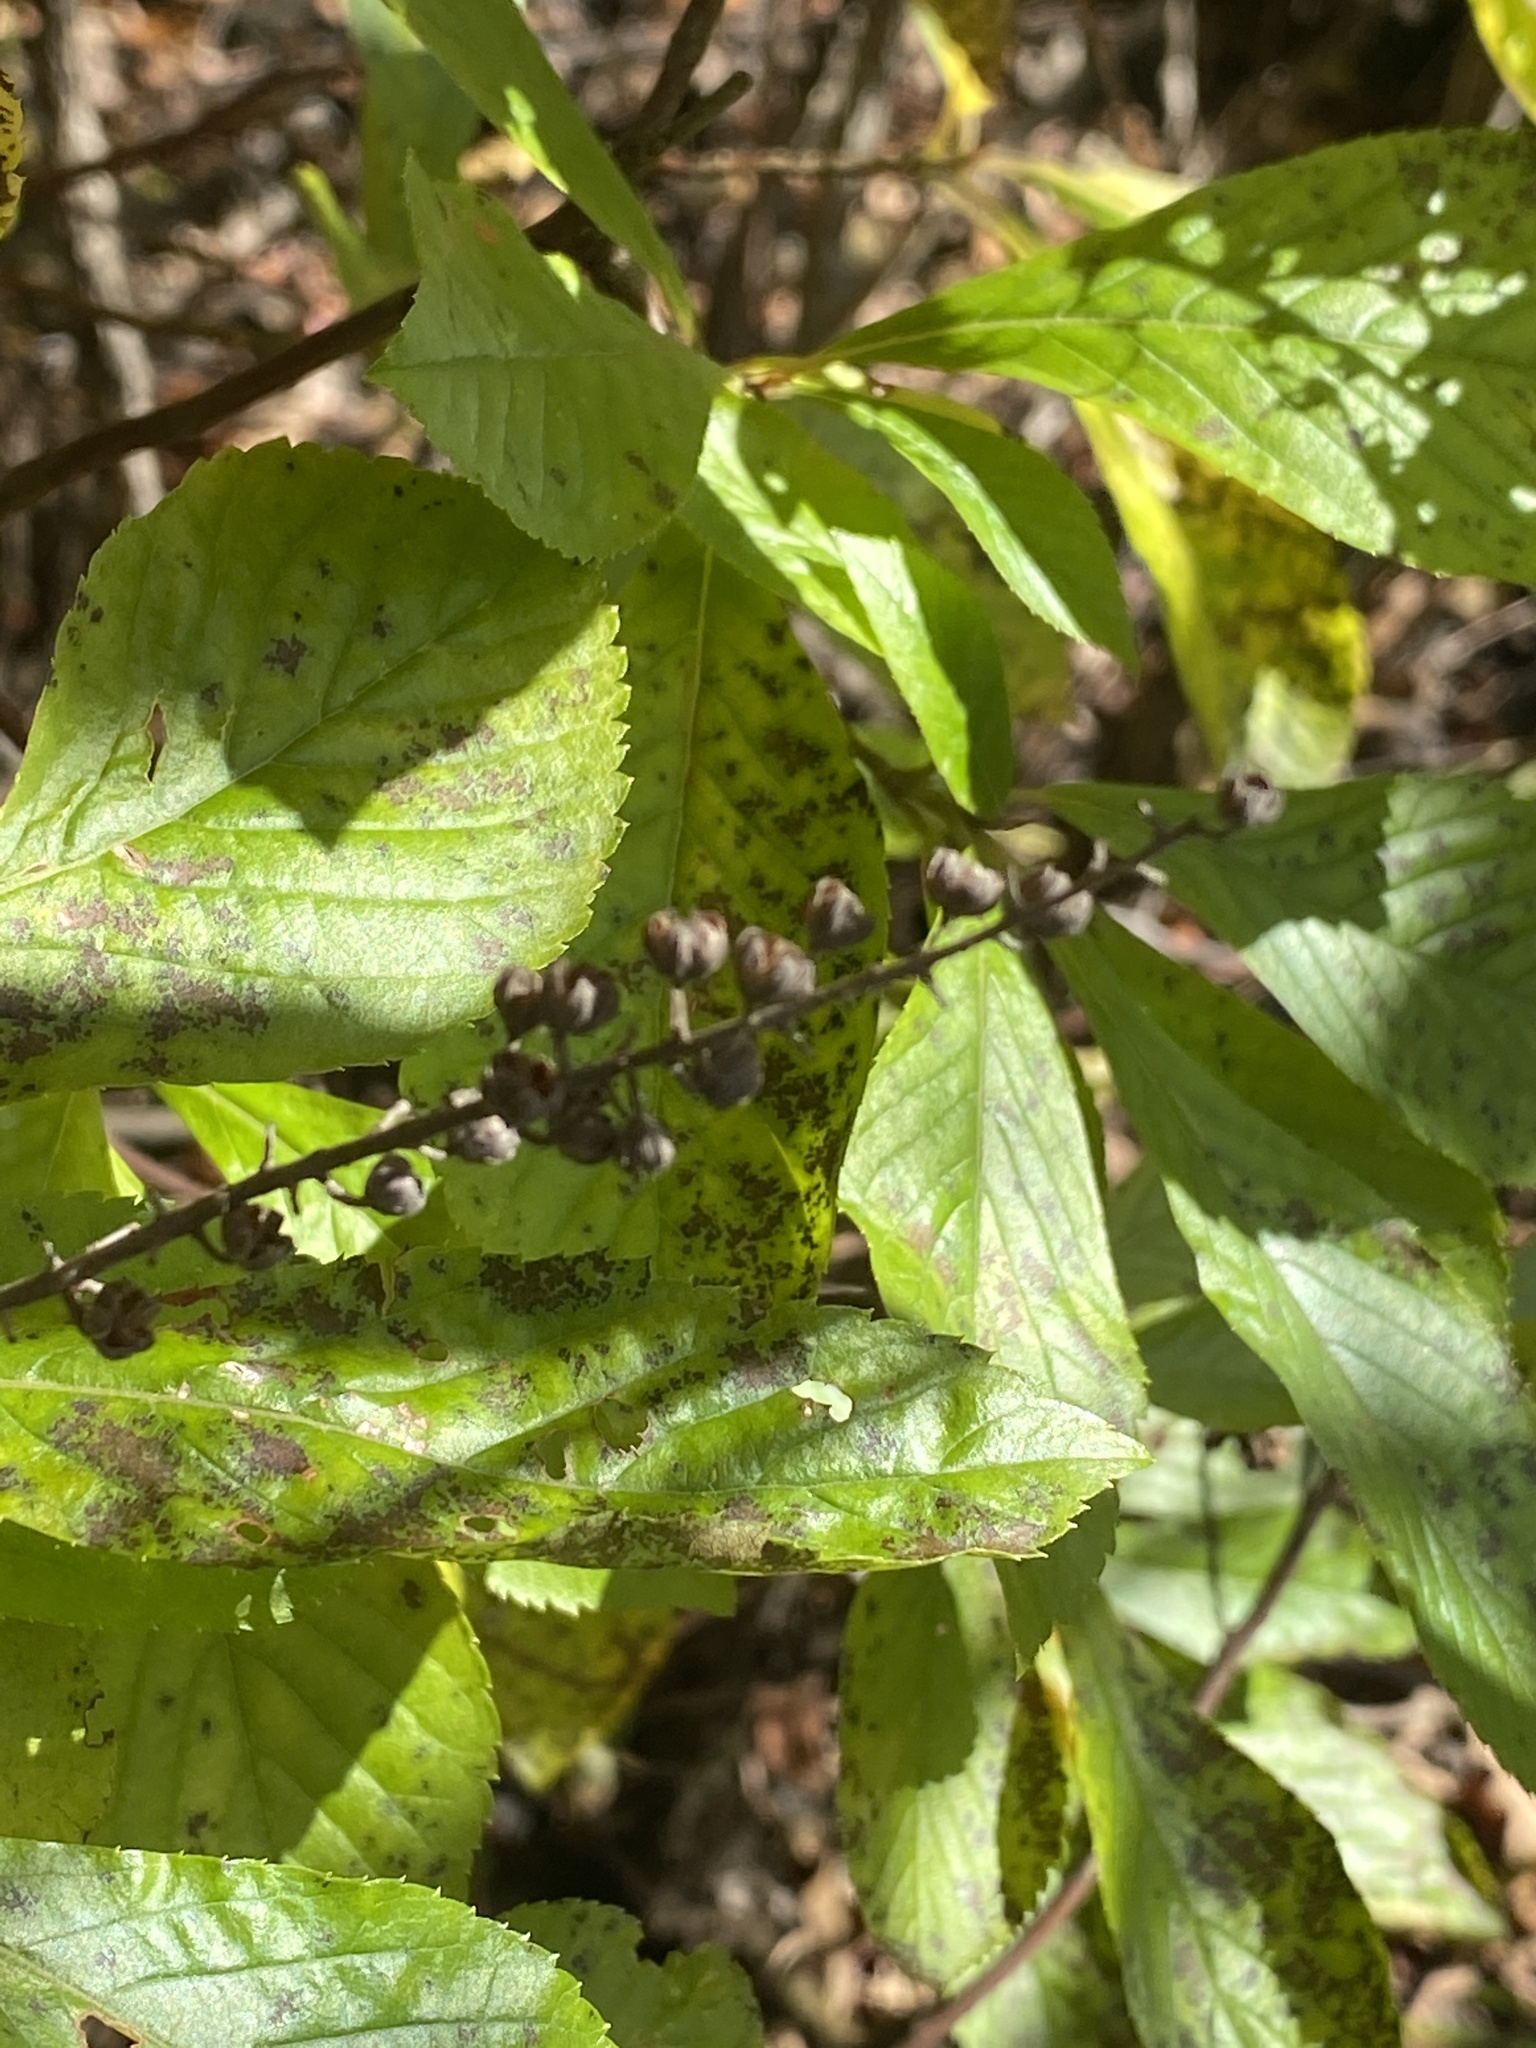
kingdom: Plantae
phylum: Tracheophyta
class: Magnoliopsida
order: Ericales
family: Clethraceae
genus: Clethra
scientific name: Clethra alnifolia
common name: Sweet pepperbush
